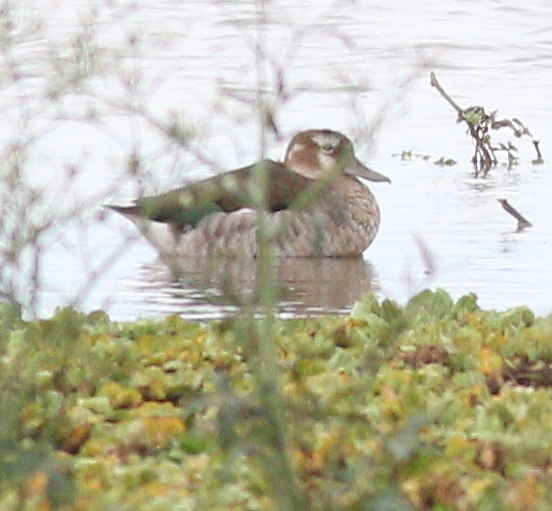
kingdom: Animalia
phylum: Chordata
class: Aves
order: Anseriformes
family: Anatidae
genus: Callonetta
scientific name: Callonetta leucophrys
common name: Ringed teal
